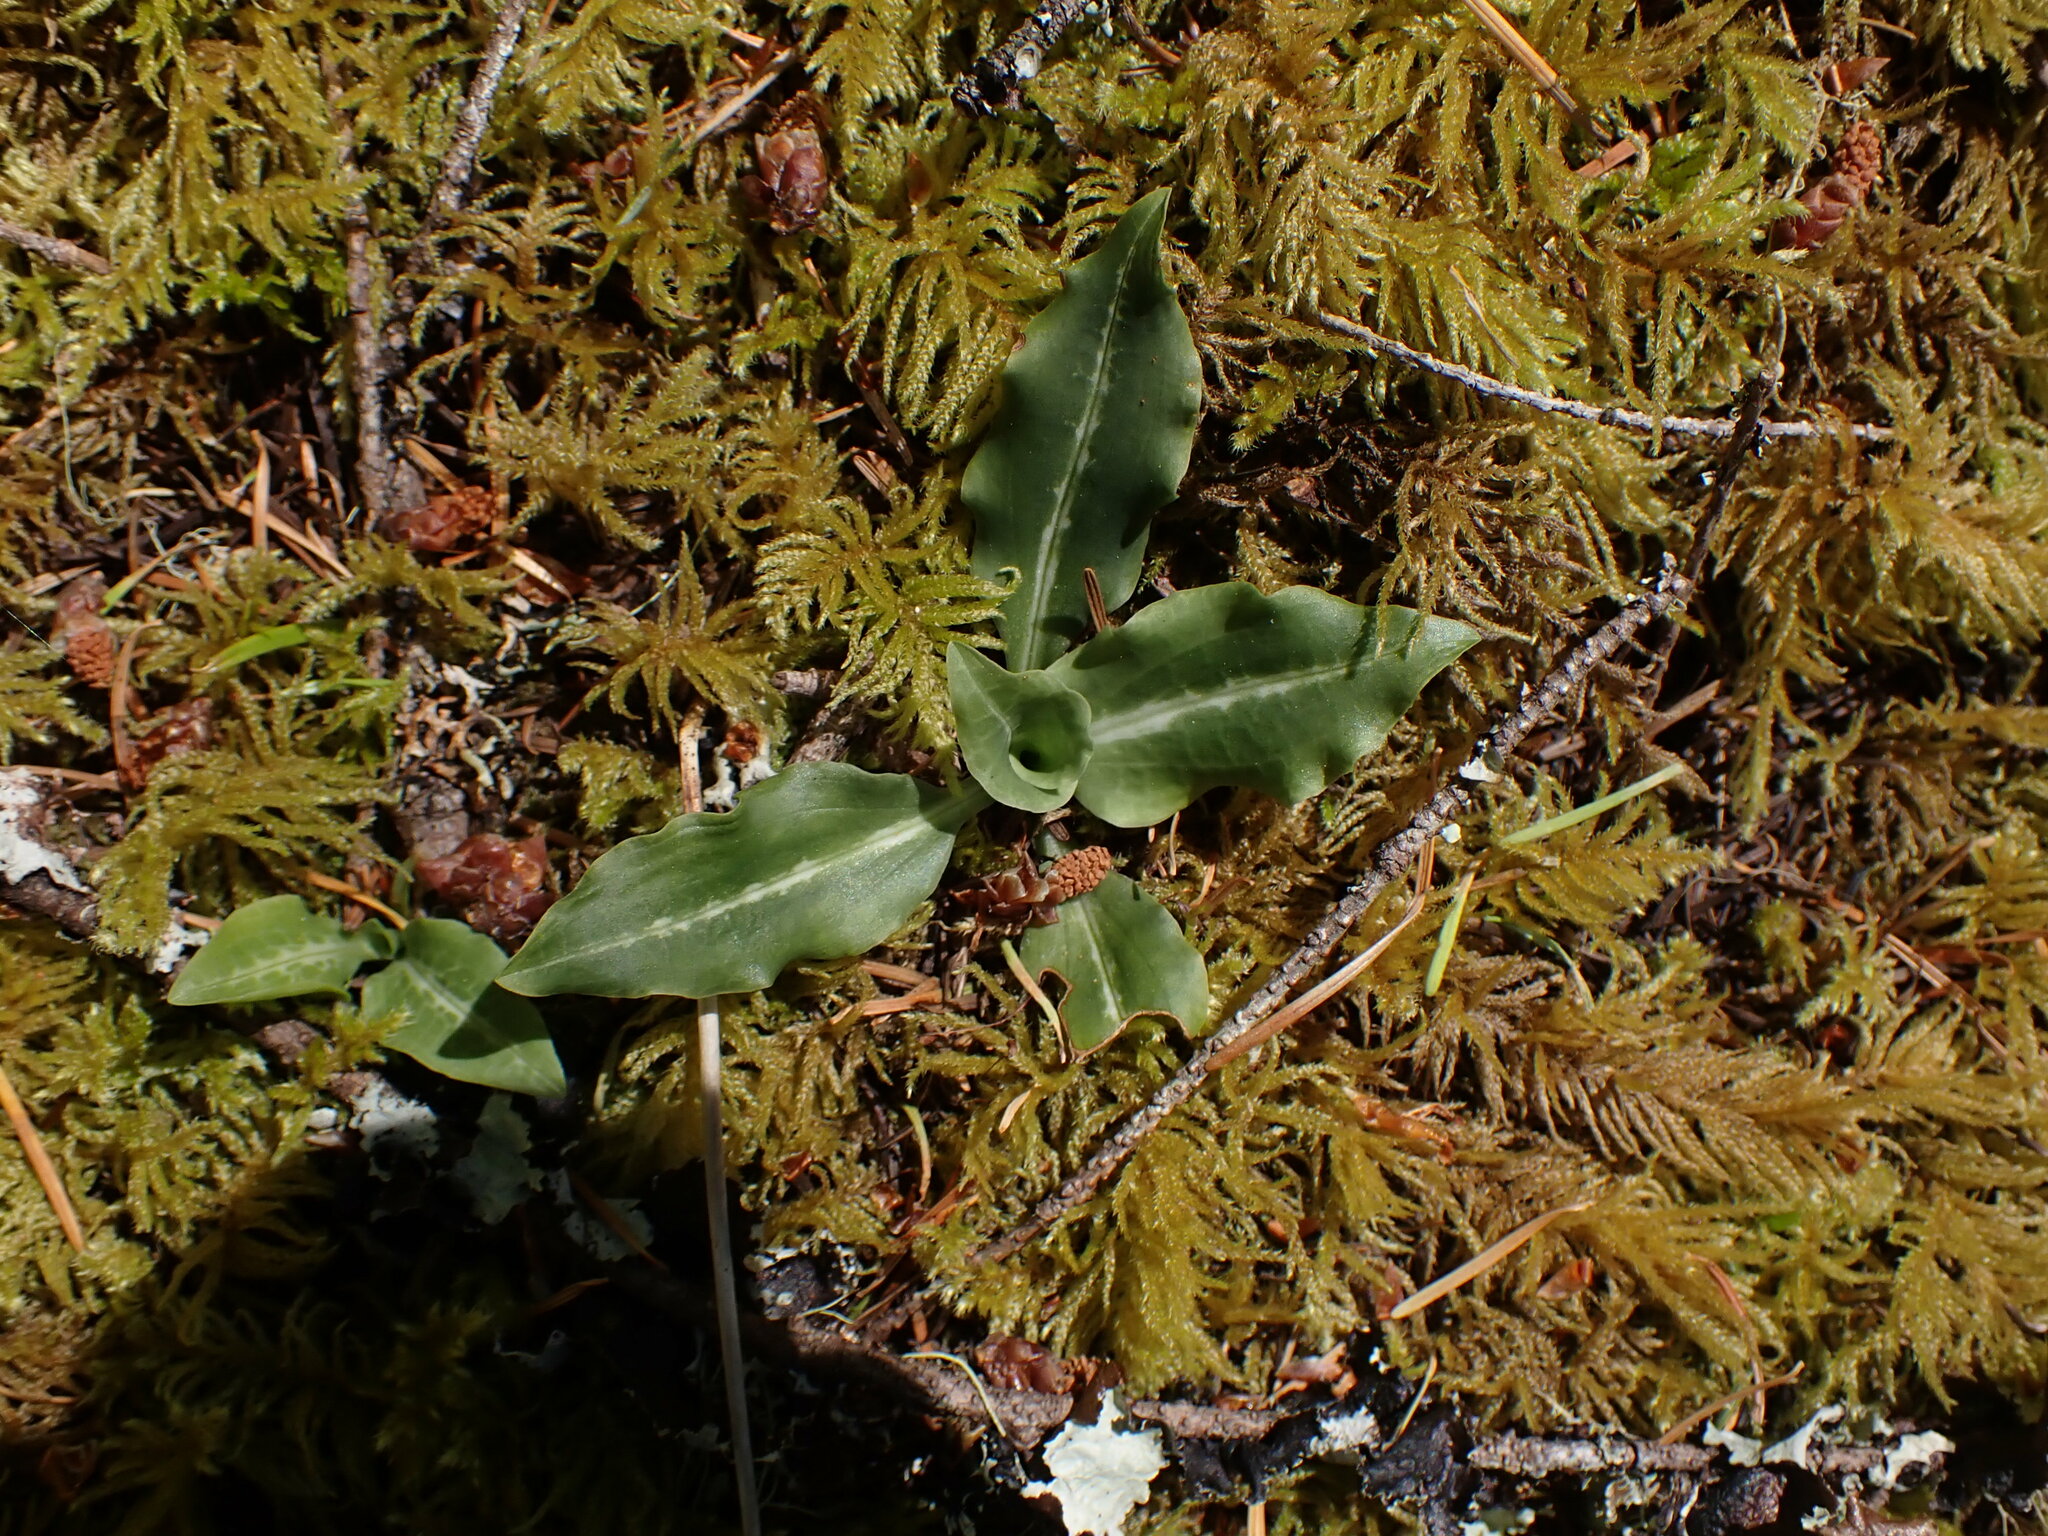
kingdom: Plantae
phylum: Tracheophyta
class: Liliopsida
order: Asparagales
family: Orchidaceae
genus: Goodyera
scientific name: Goodyera oblongifolia
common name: Giant rattlesnake-plantain
